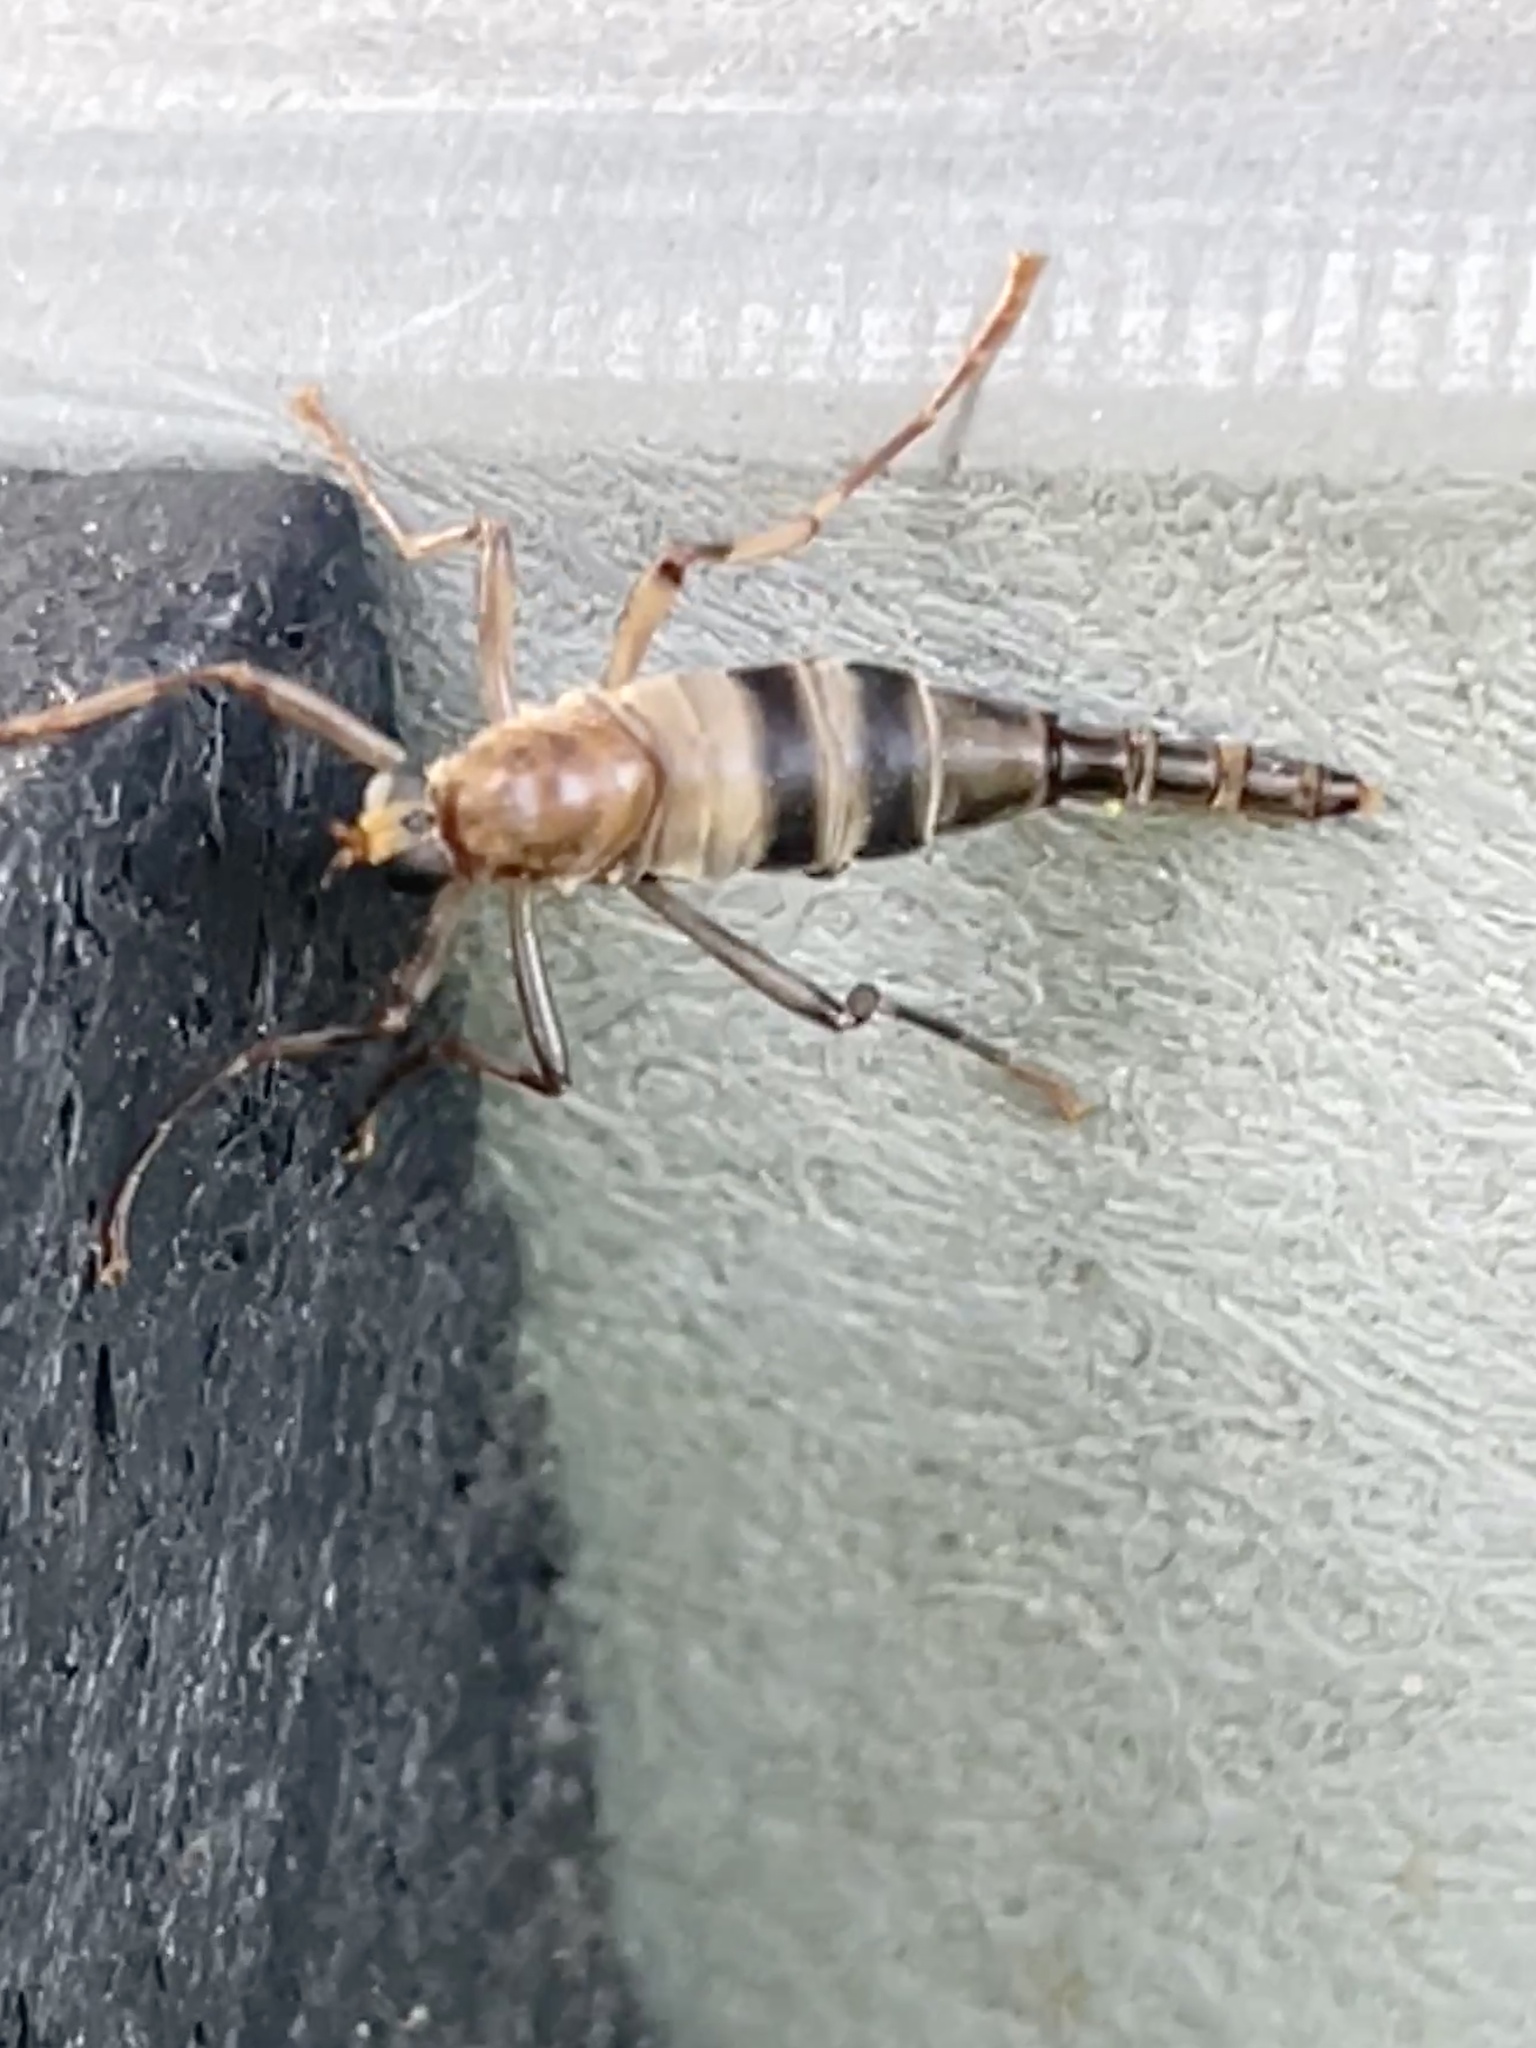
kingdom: Animalia
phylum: Arthropoda
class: Insecta
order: Diptera
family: Stratiomyidae
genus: Boreoides
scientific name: Boreoides subulatus
